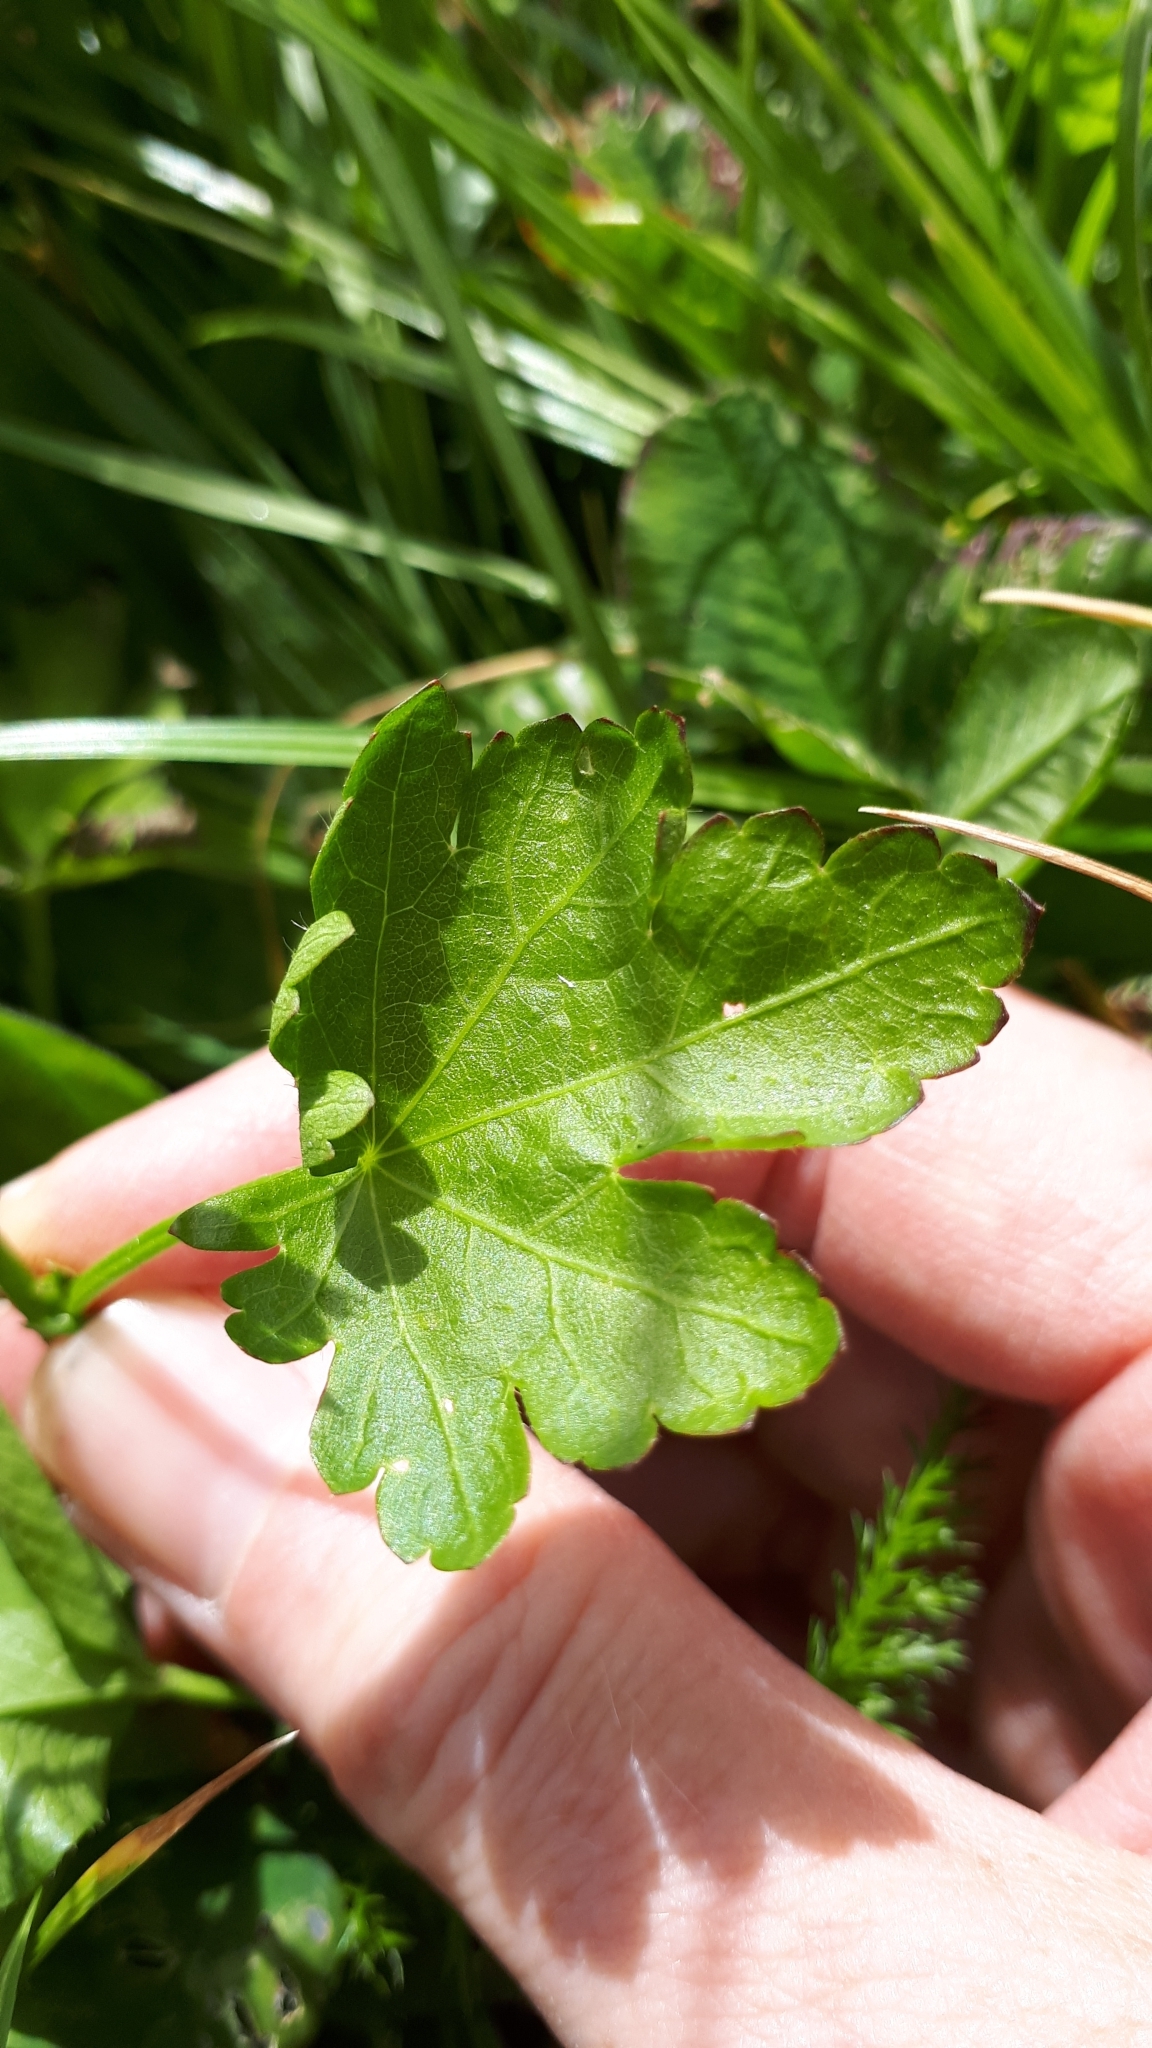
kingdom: Plantae
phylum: Tracheophyta
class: Magnoliopsida
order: Malvales
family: Malvaceae
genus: Modiola
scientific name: Modiola caroliniana
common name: Carolina bristlemallow
